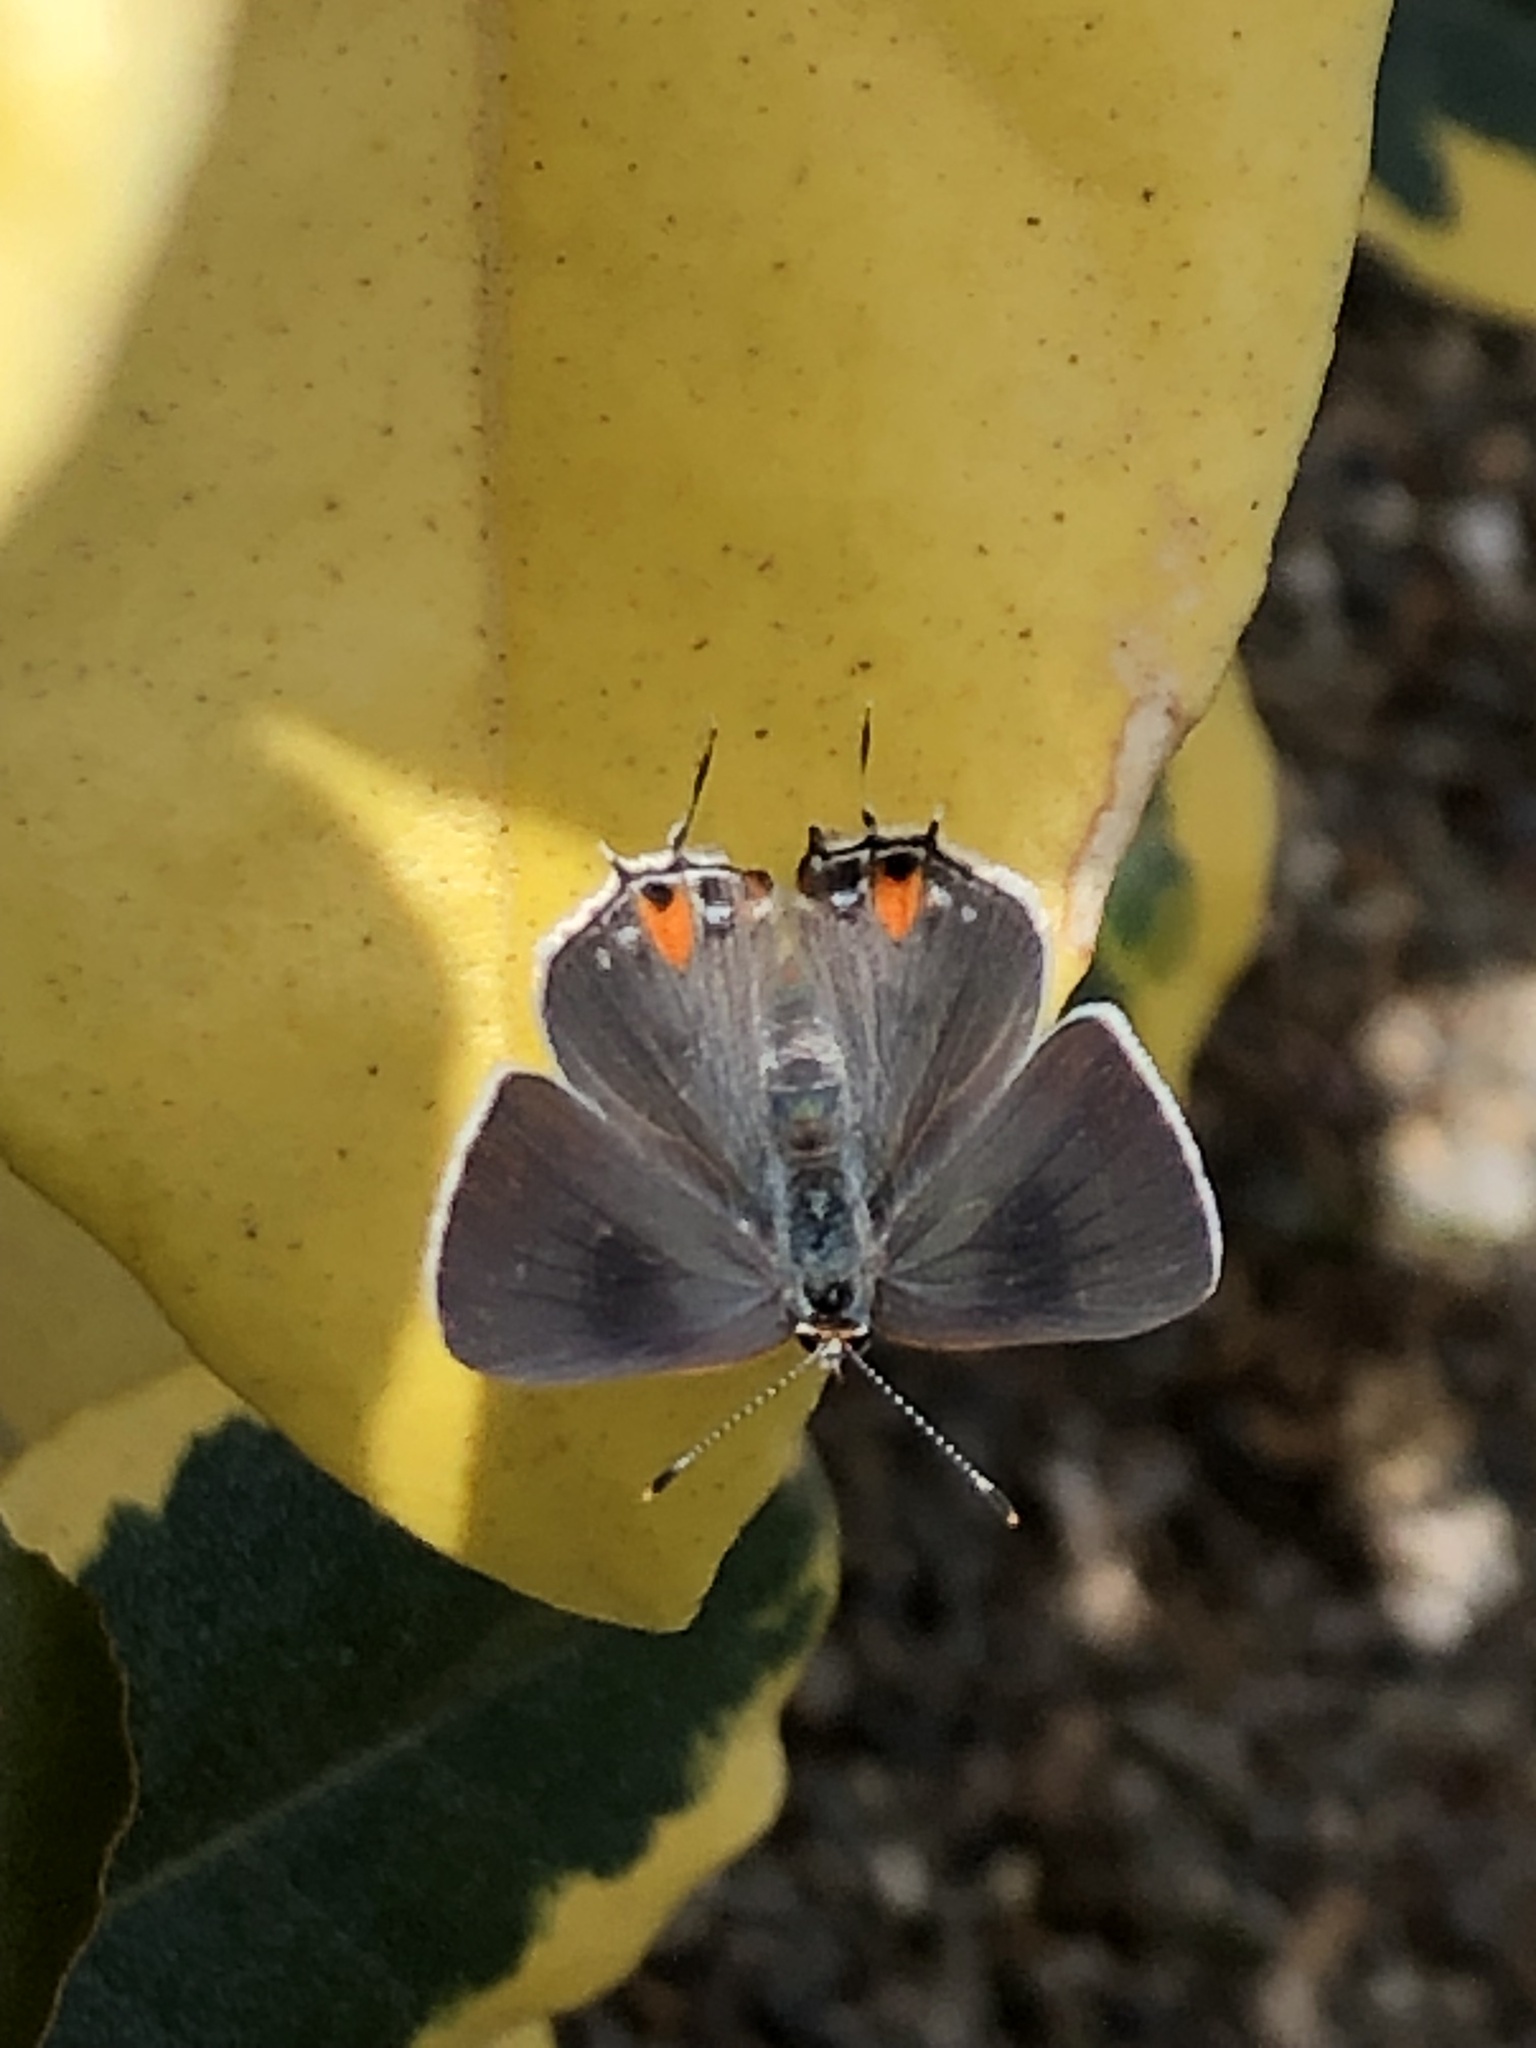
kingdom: Animalia
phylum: Arthropoda
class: Insecta
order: Lepidoptera
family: Lycaenidae
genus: Strymon
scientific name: Strymon melinus
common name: Gray hairstreak
